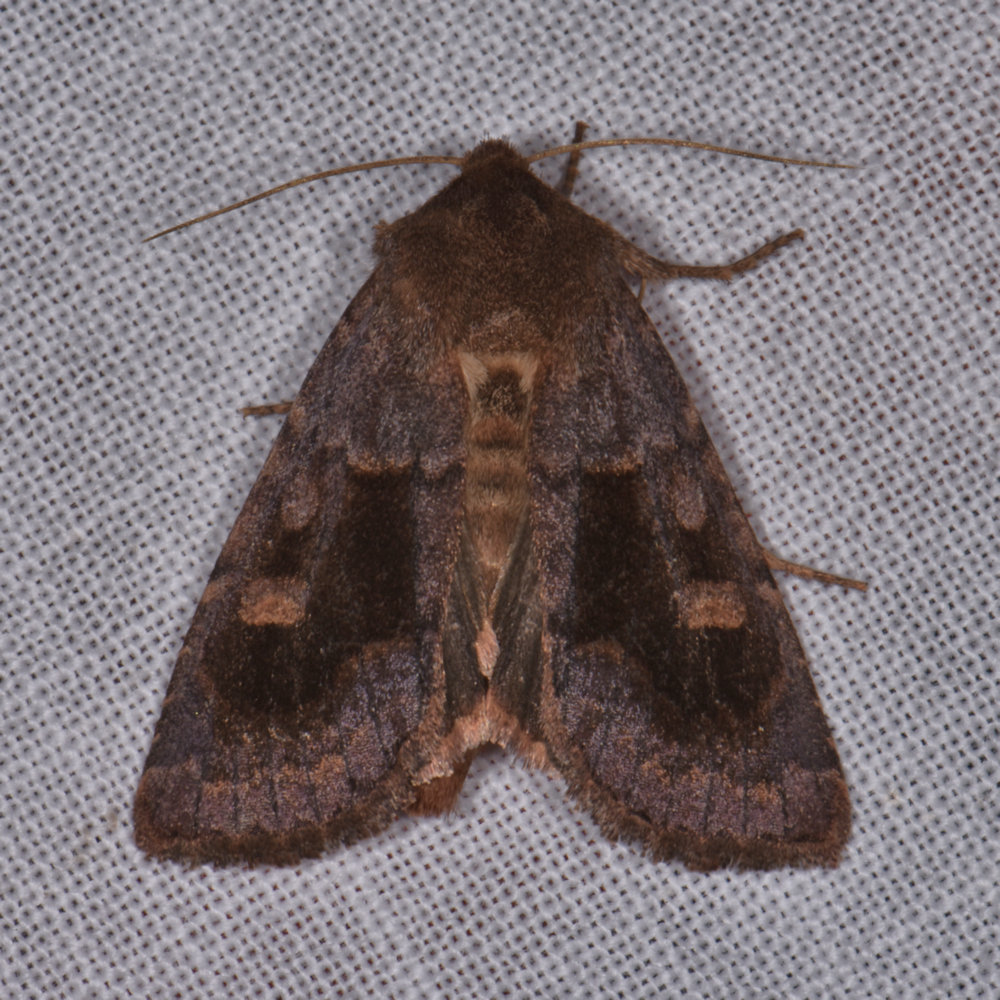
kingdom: Animalia
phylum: Arthropoda
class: Insecta
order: Lepidoptera
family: Noctuidae
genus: Nephelodes
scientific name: Nephelodes minians
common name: Bronzed cutworm
